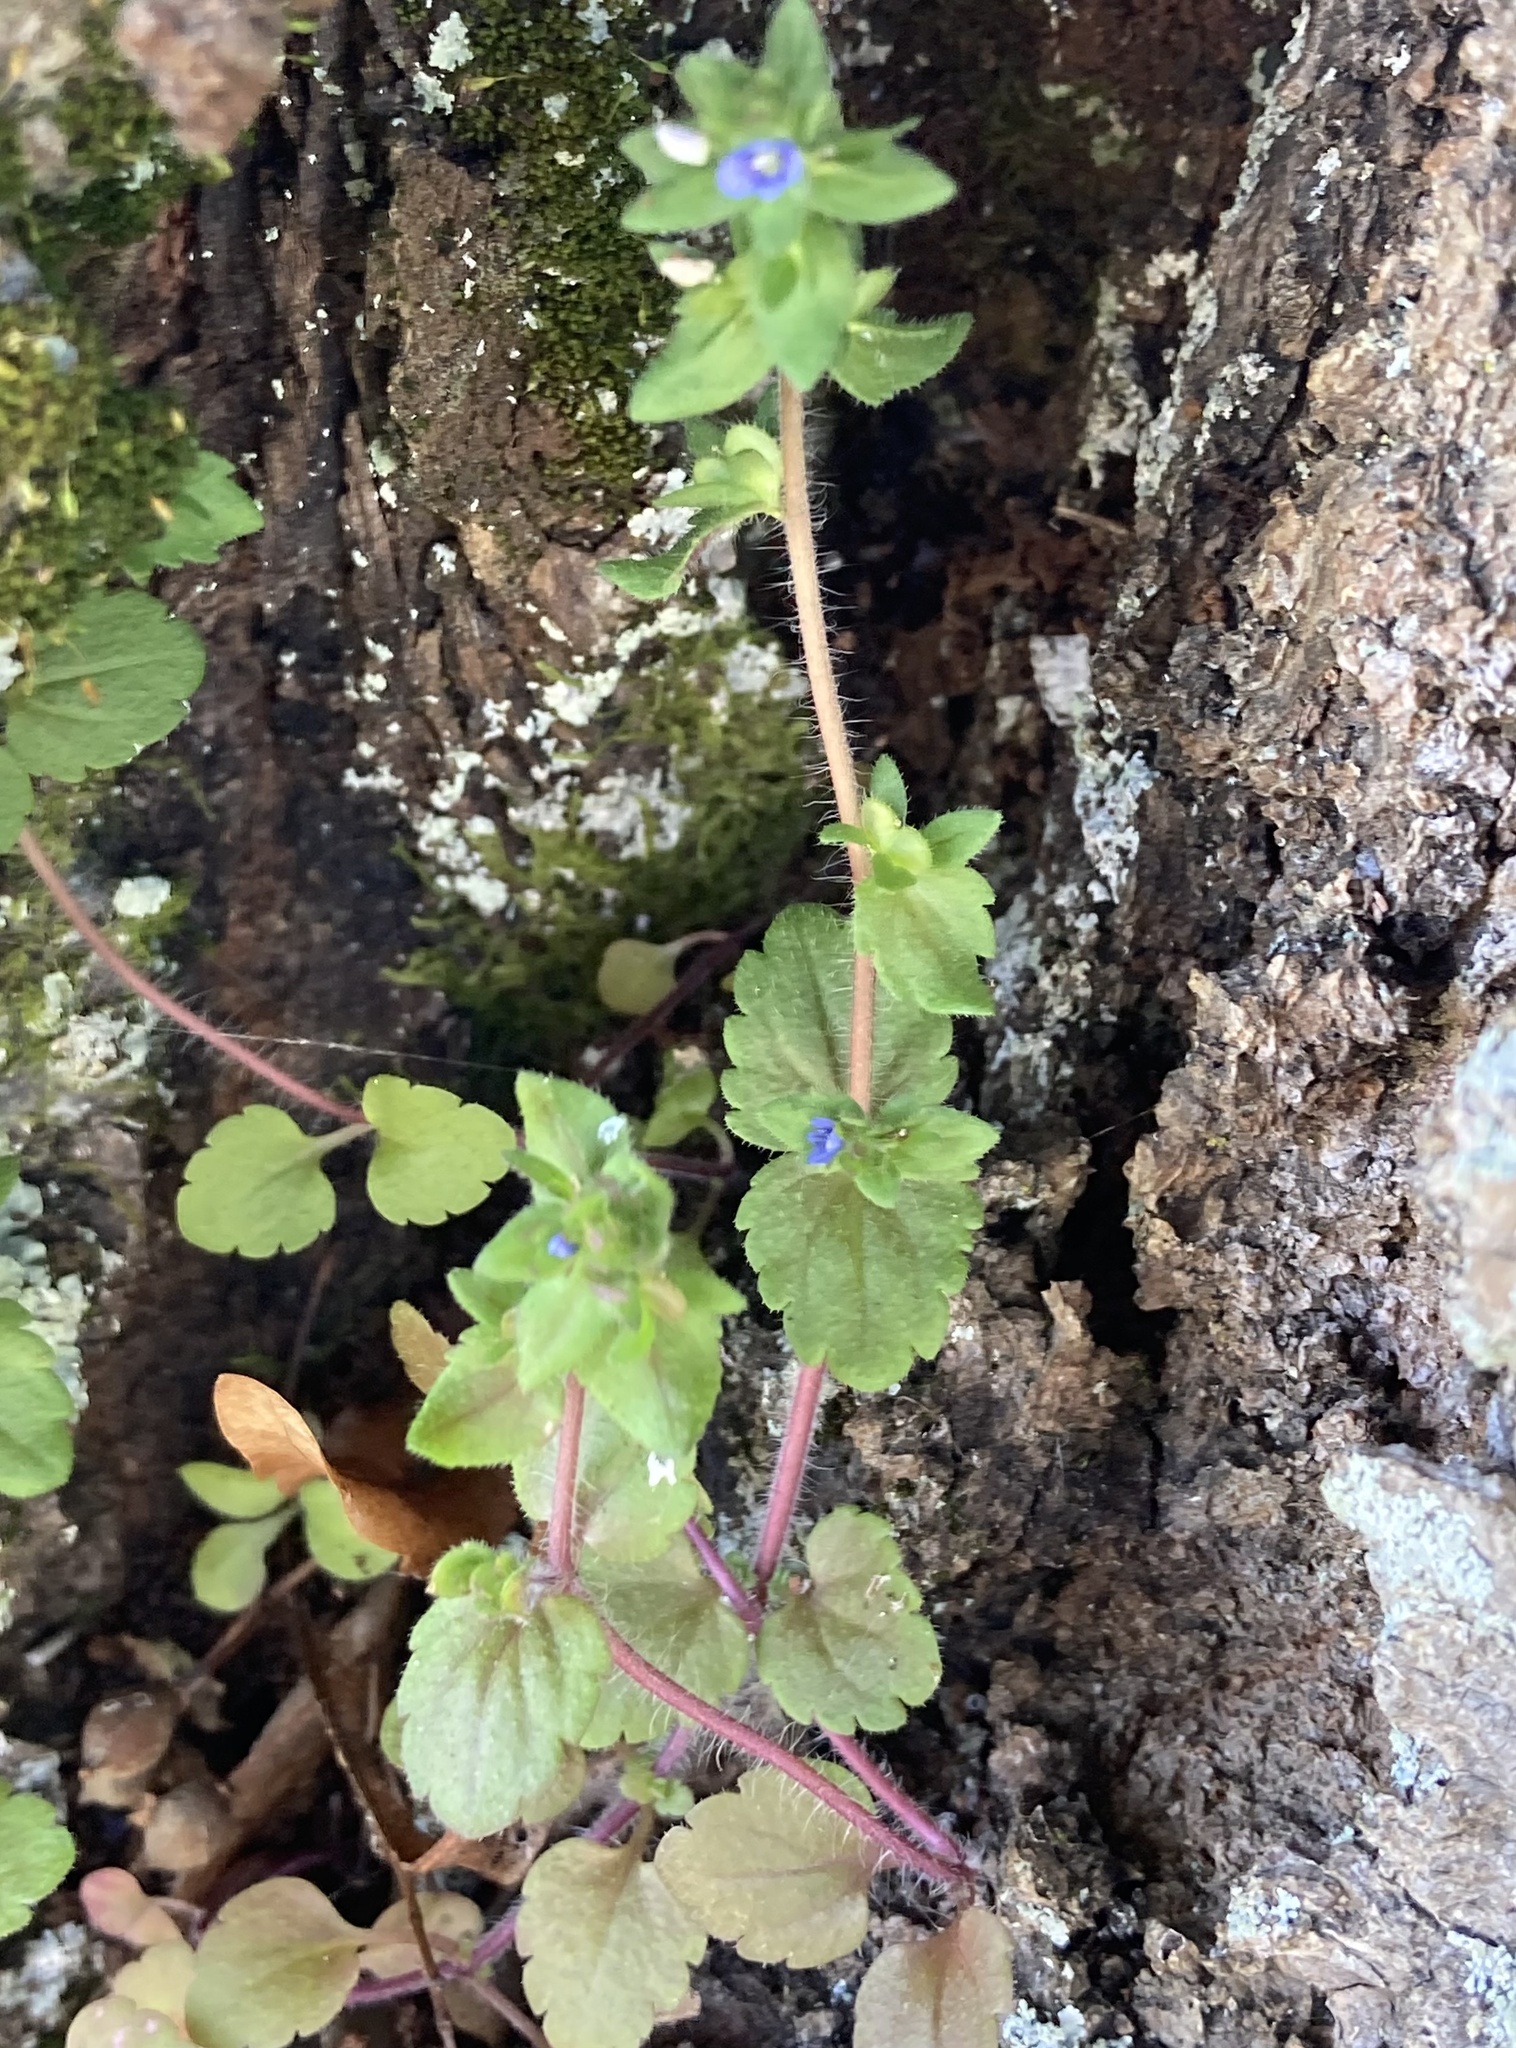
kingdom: Plantae
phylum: Tracheophyta
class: Magnoliopsida
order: Lamiales
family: Plantaginaceae
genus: Veronica
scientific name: Veronica arvensis
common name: Corn speedwell
